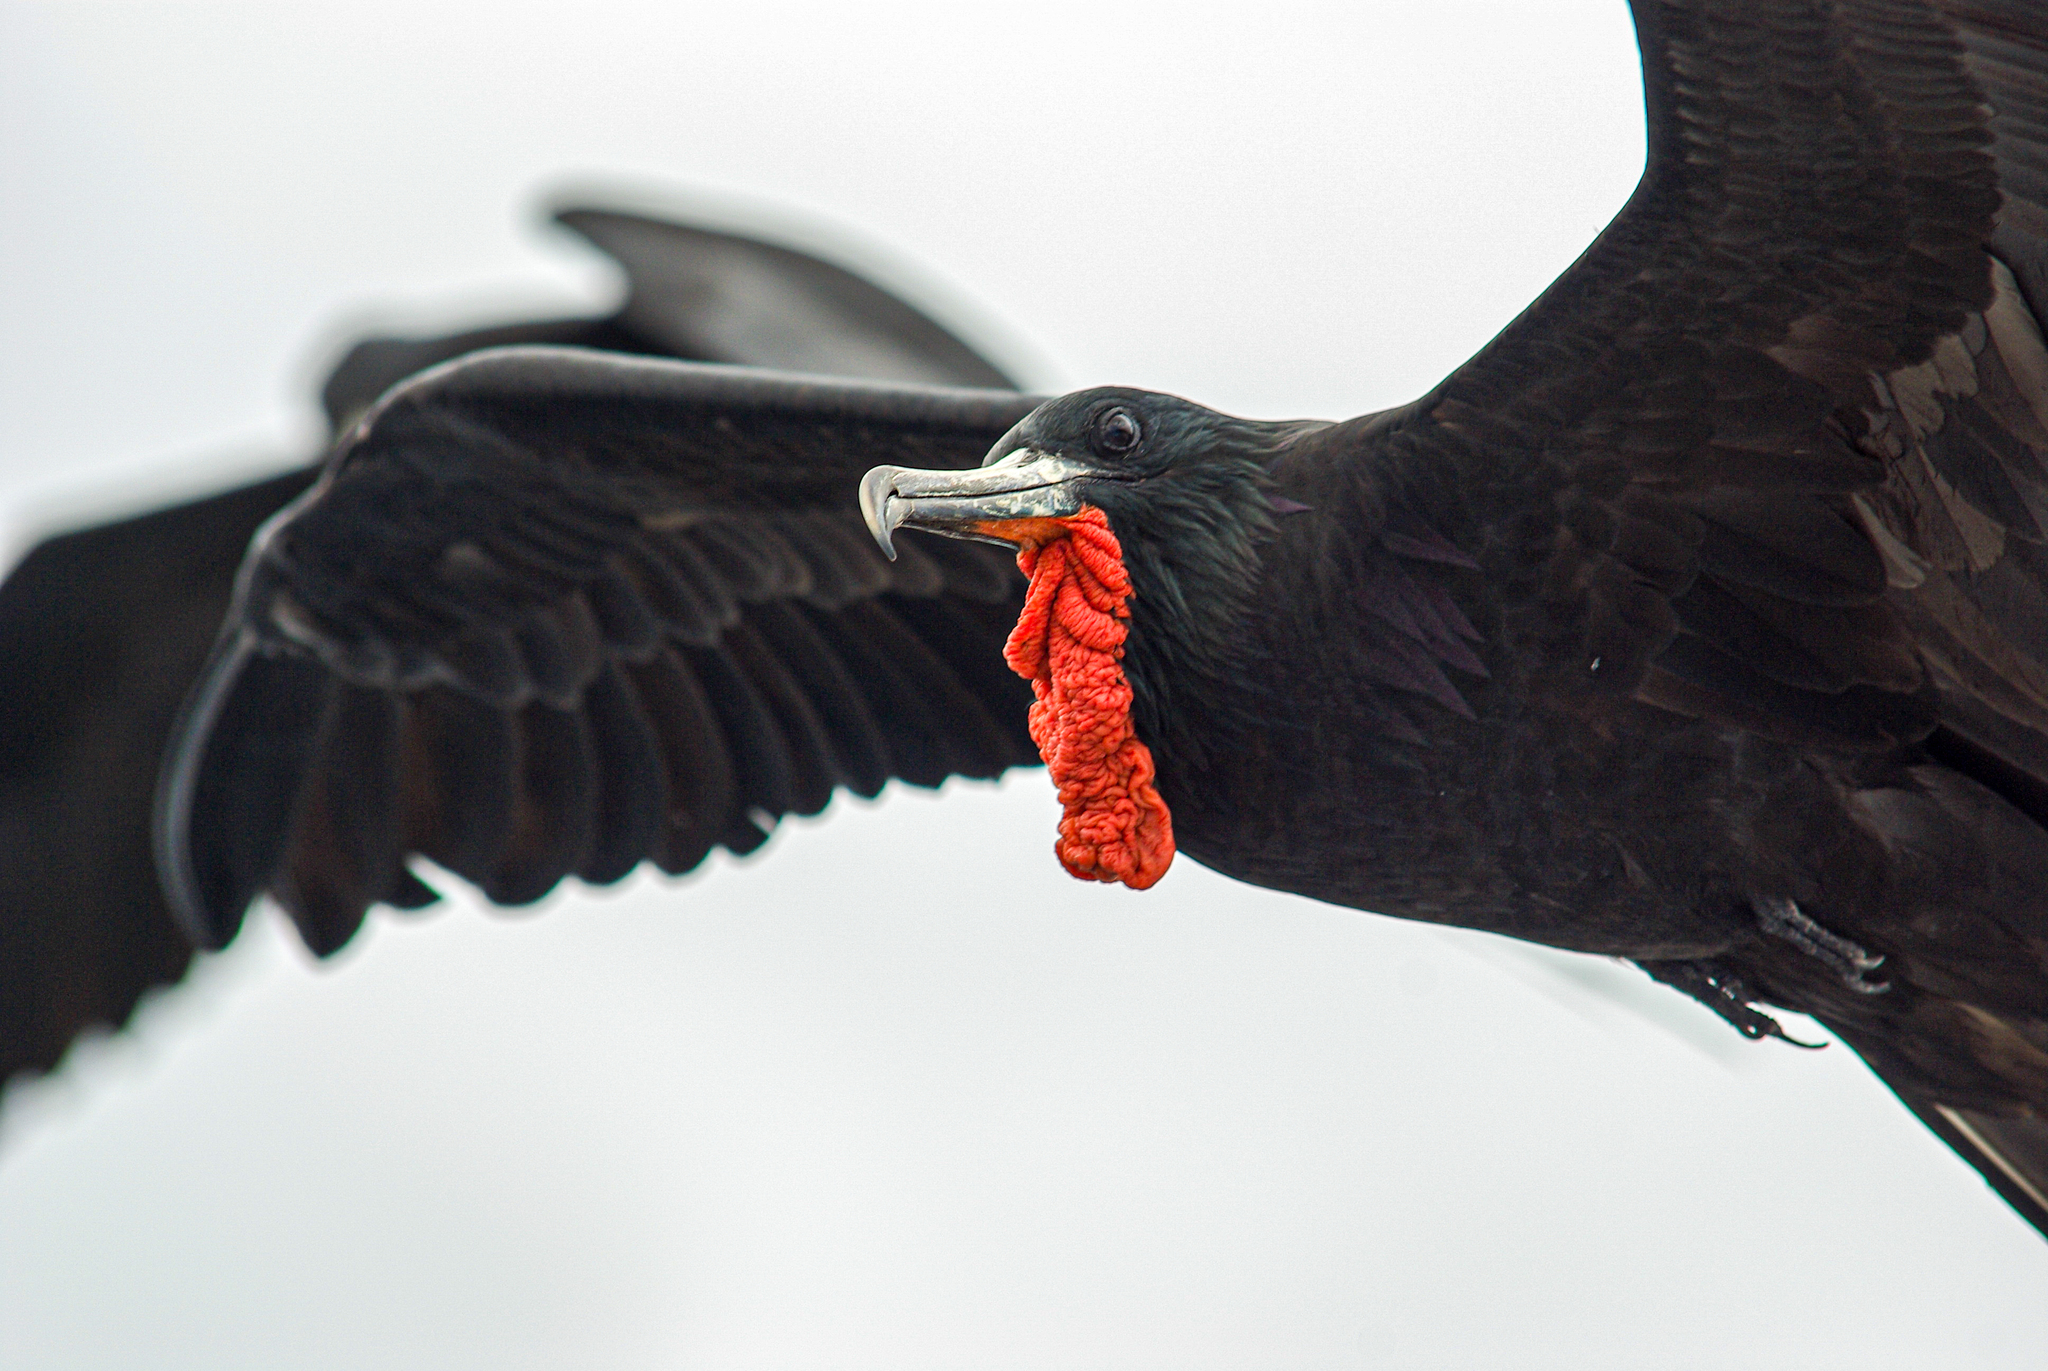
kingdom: Animalia
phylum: Chordata
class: Aves
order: Suliformes
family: Fregatidae
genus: Fregata
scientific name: Fregata magnificens
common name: Magnificent frigatebird
